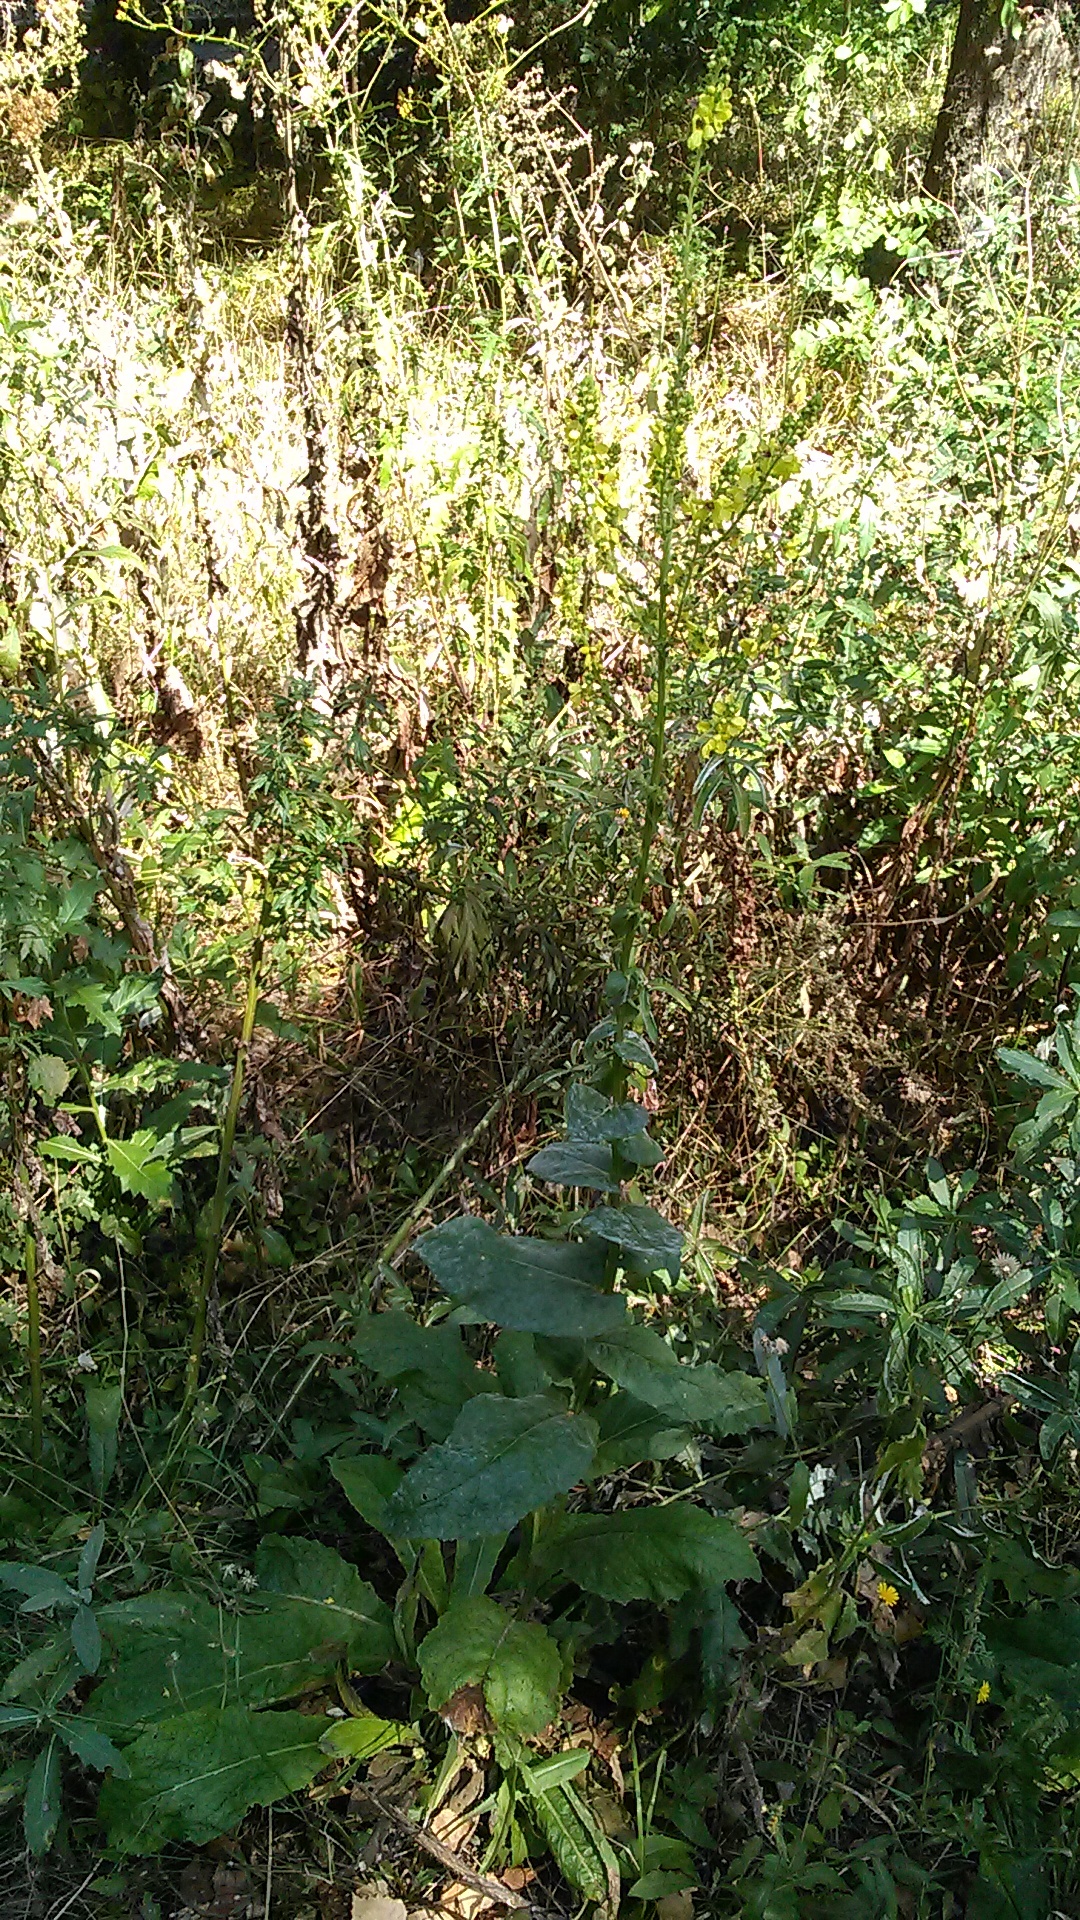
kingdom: Plantae
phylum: Tracheophyta
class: Magnoliopsida
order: Lamiales
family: Scrophulariaceae
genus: Verbascum
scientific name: Verbascum pyramidatum
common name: Caucasian mullein
